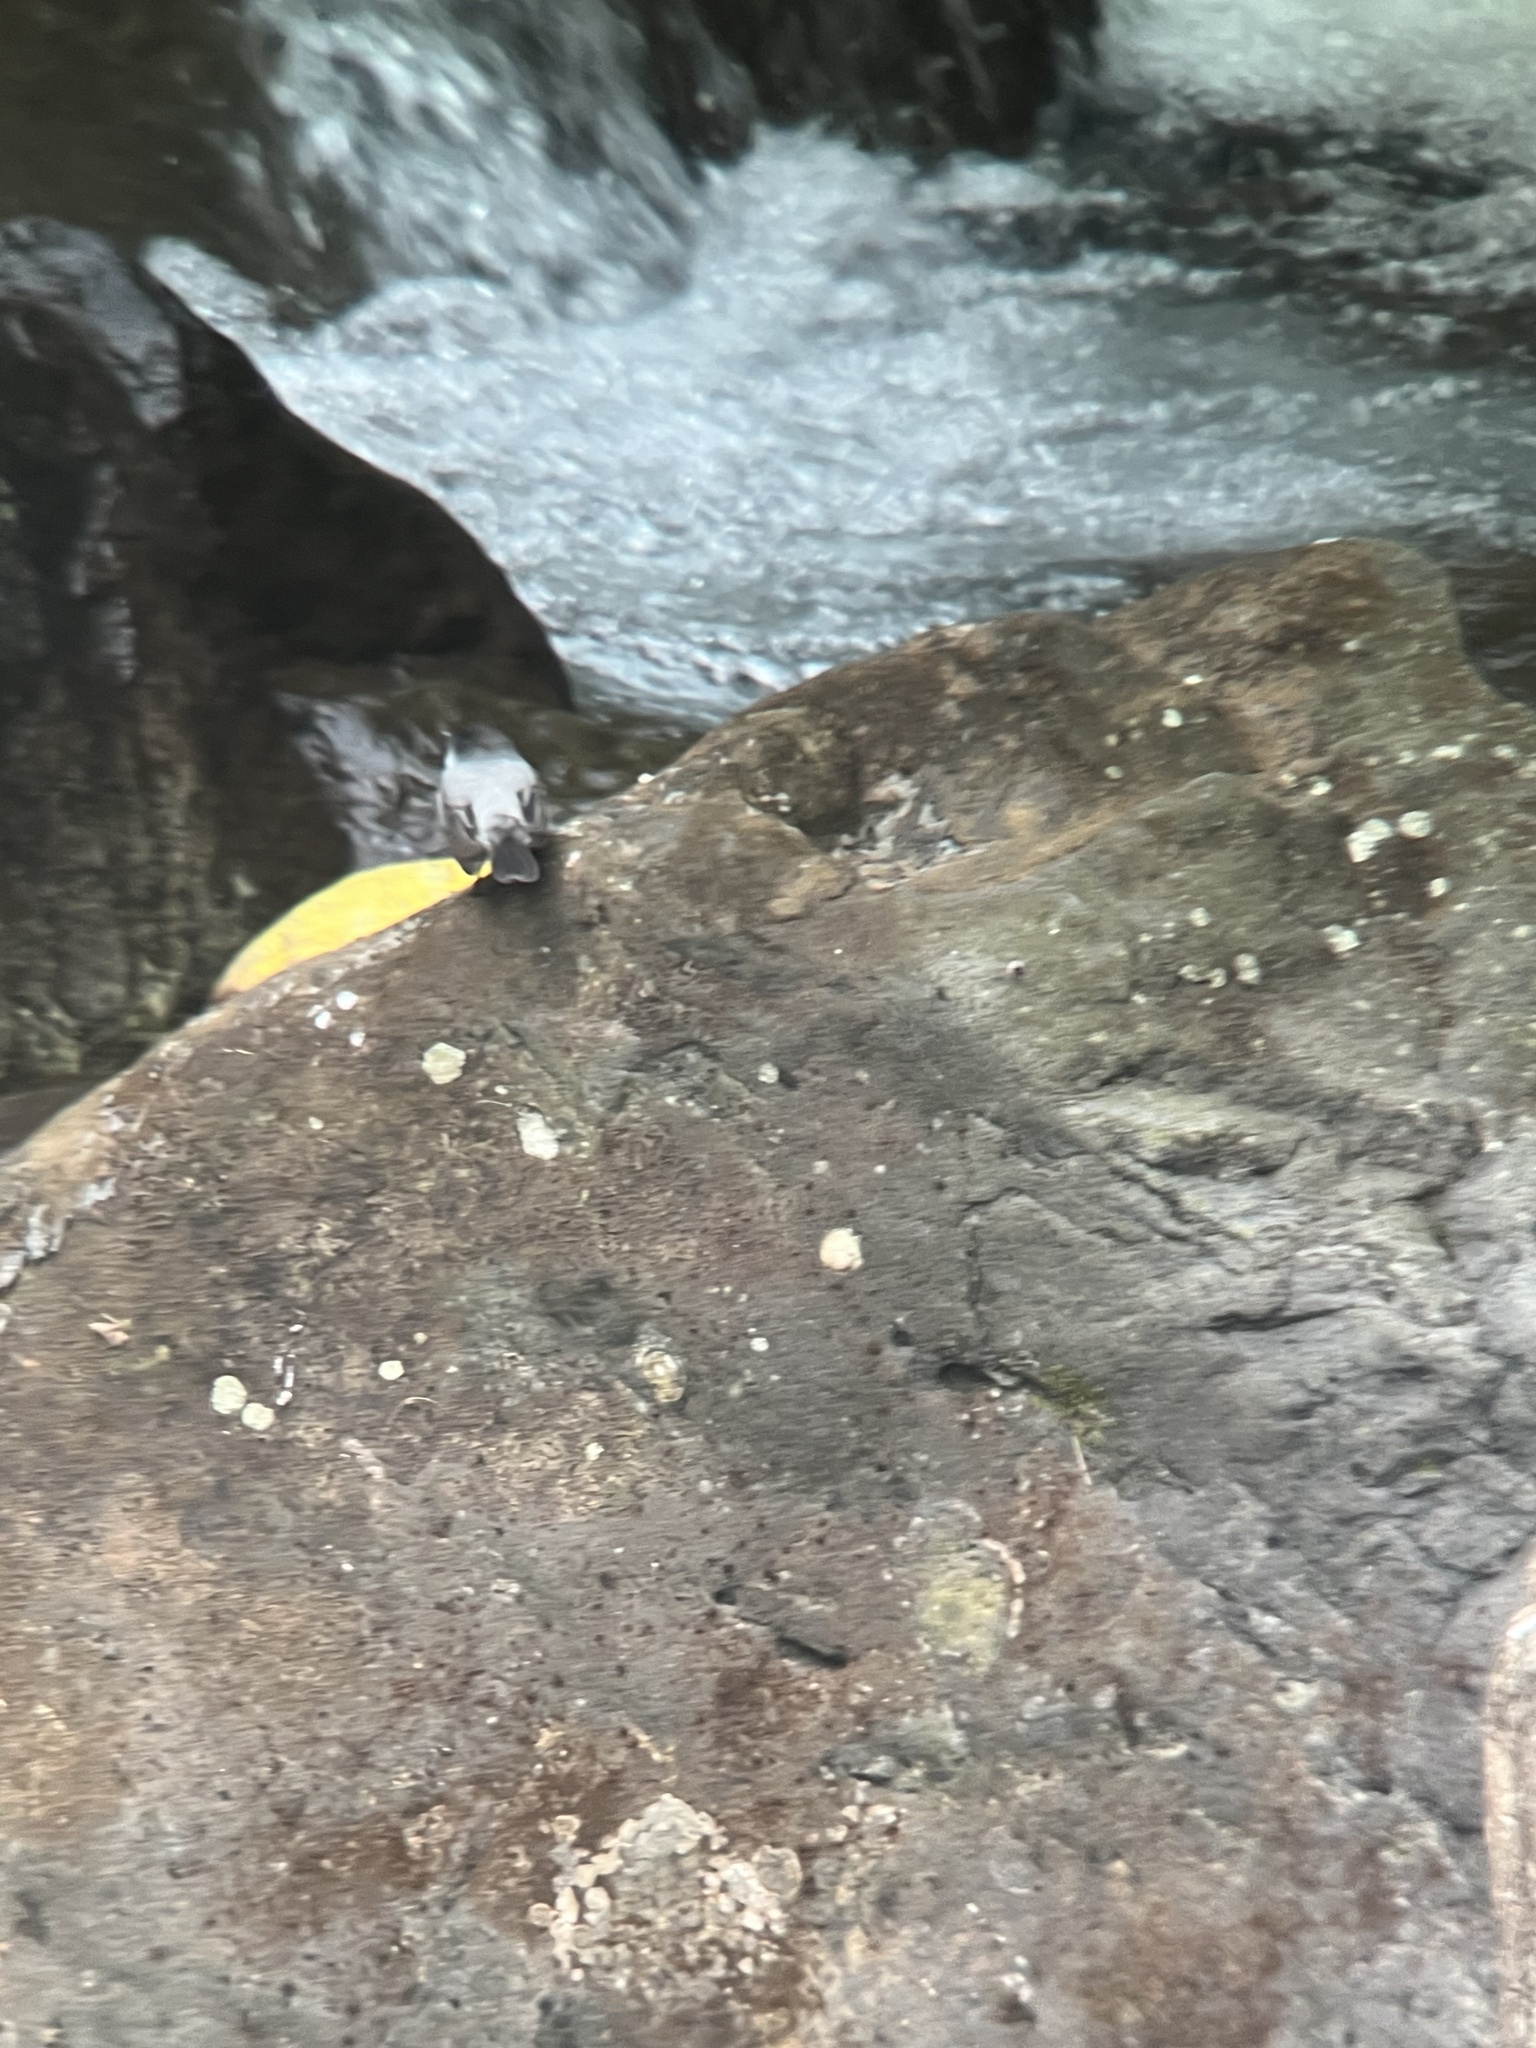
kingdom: Animalia
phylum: Chordata
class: Aves
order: Passeriformes
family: Tyrannidae
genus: Serpophaga
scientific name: Serpophaga cinerea
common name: Torrent tyrannulet
